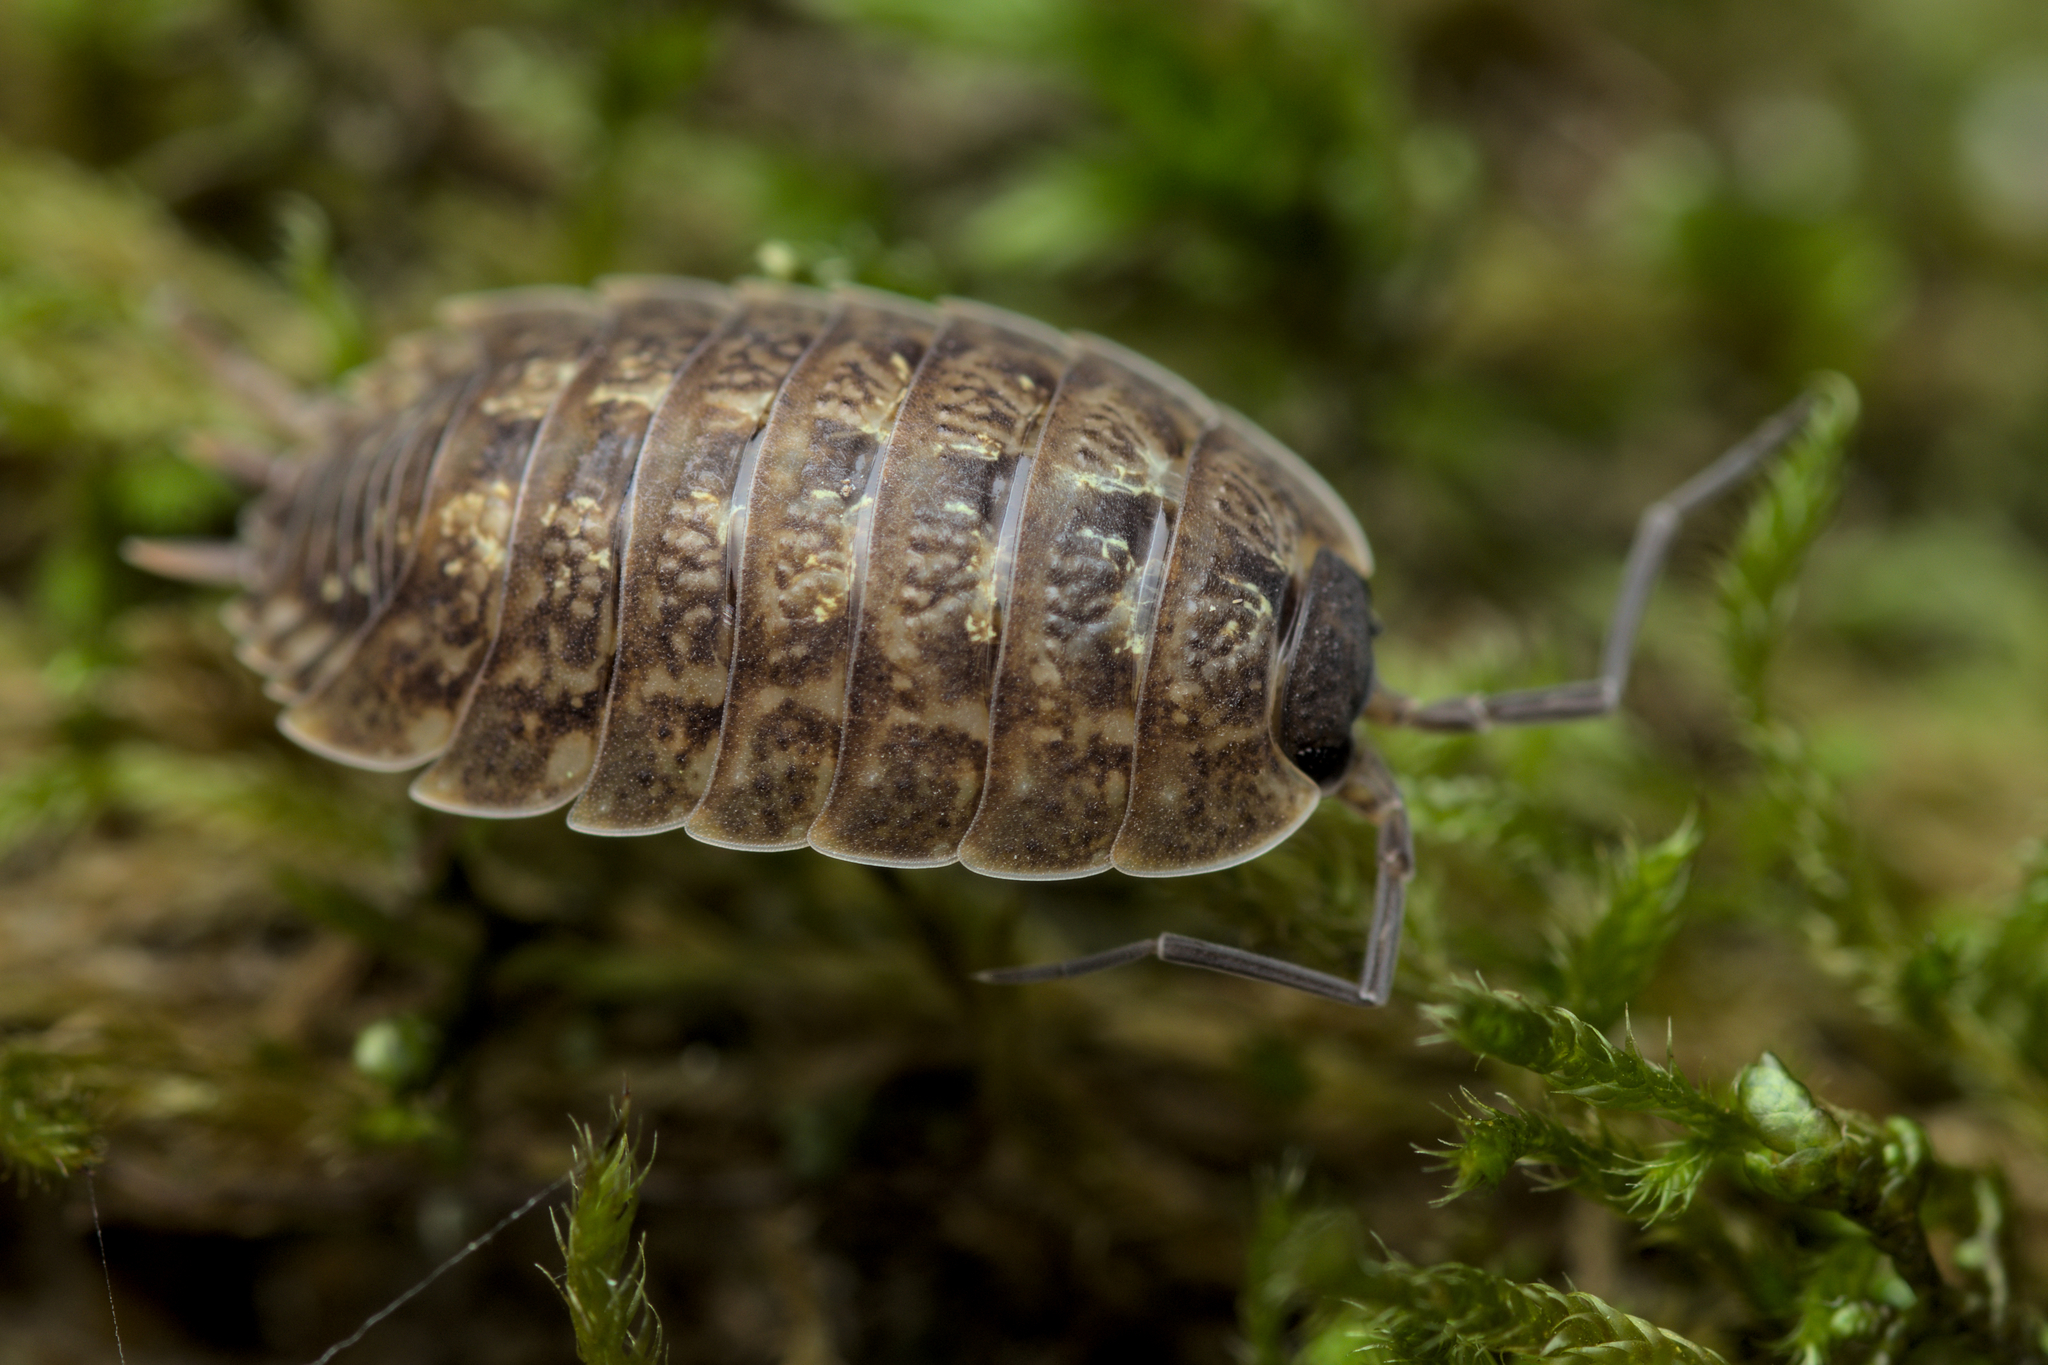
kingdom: Animalia
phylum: Arthropoda
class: Malacostraca
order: Isopoda
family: Porcellionidae
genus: Porcellio
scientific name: Porcellio monticola
